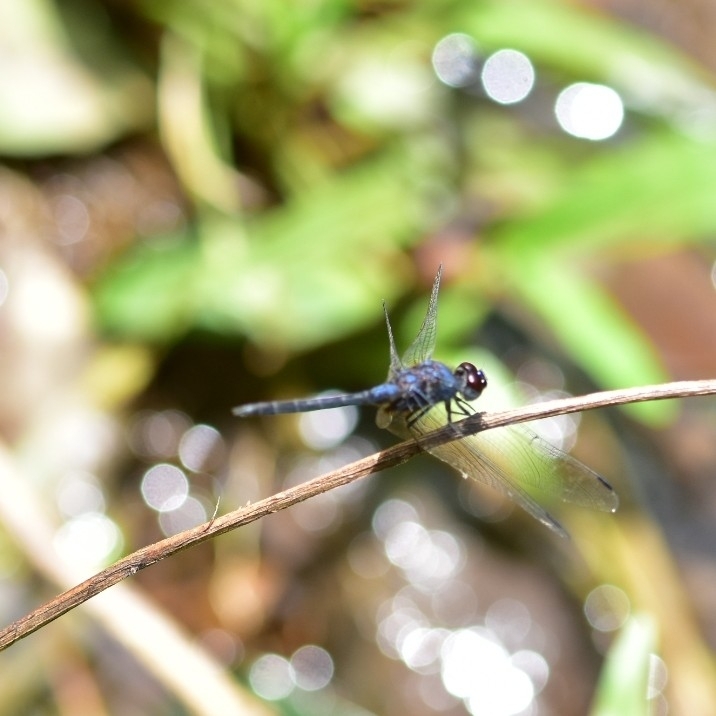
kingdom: Animalia
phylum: Arthropoda
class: Insecta
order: Odonata
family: Libellulidae
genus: Trithemis
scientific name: Trithemis festiva
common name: Indigo dropwing
